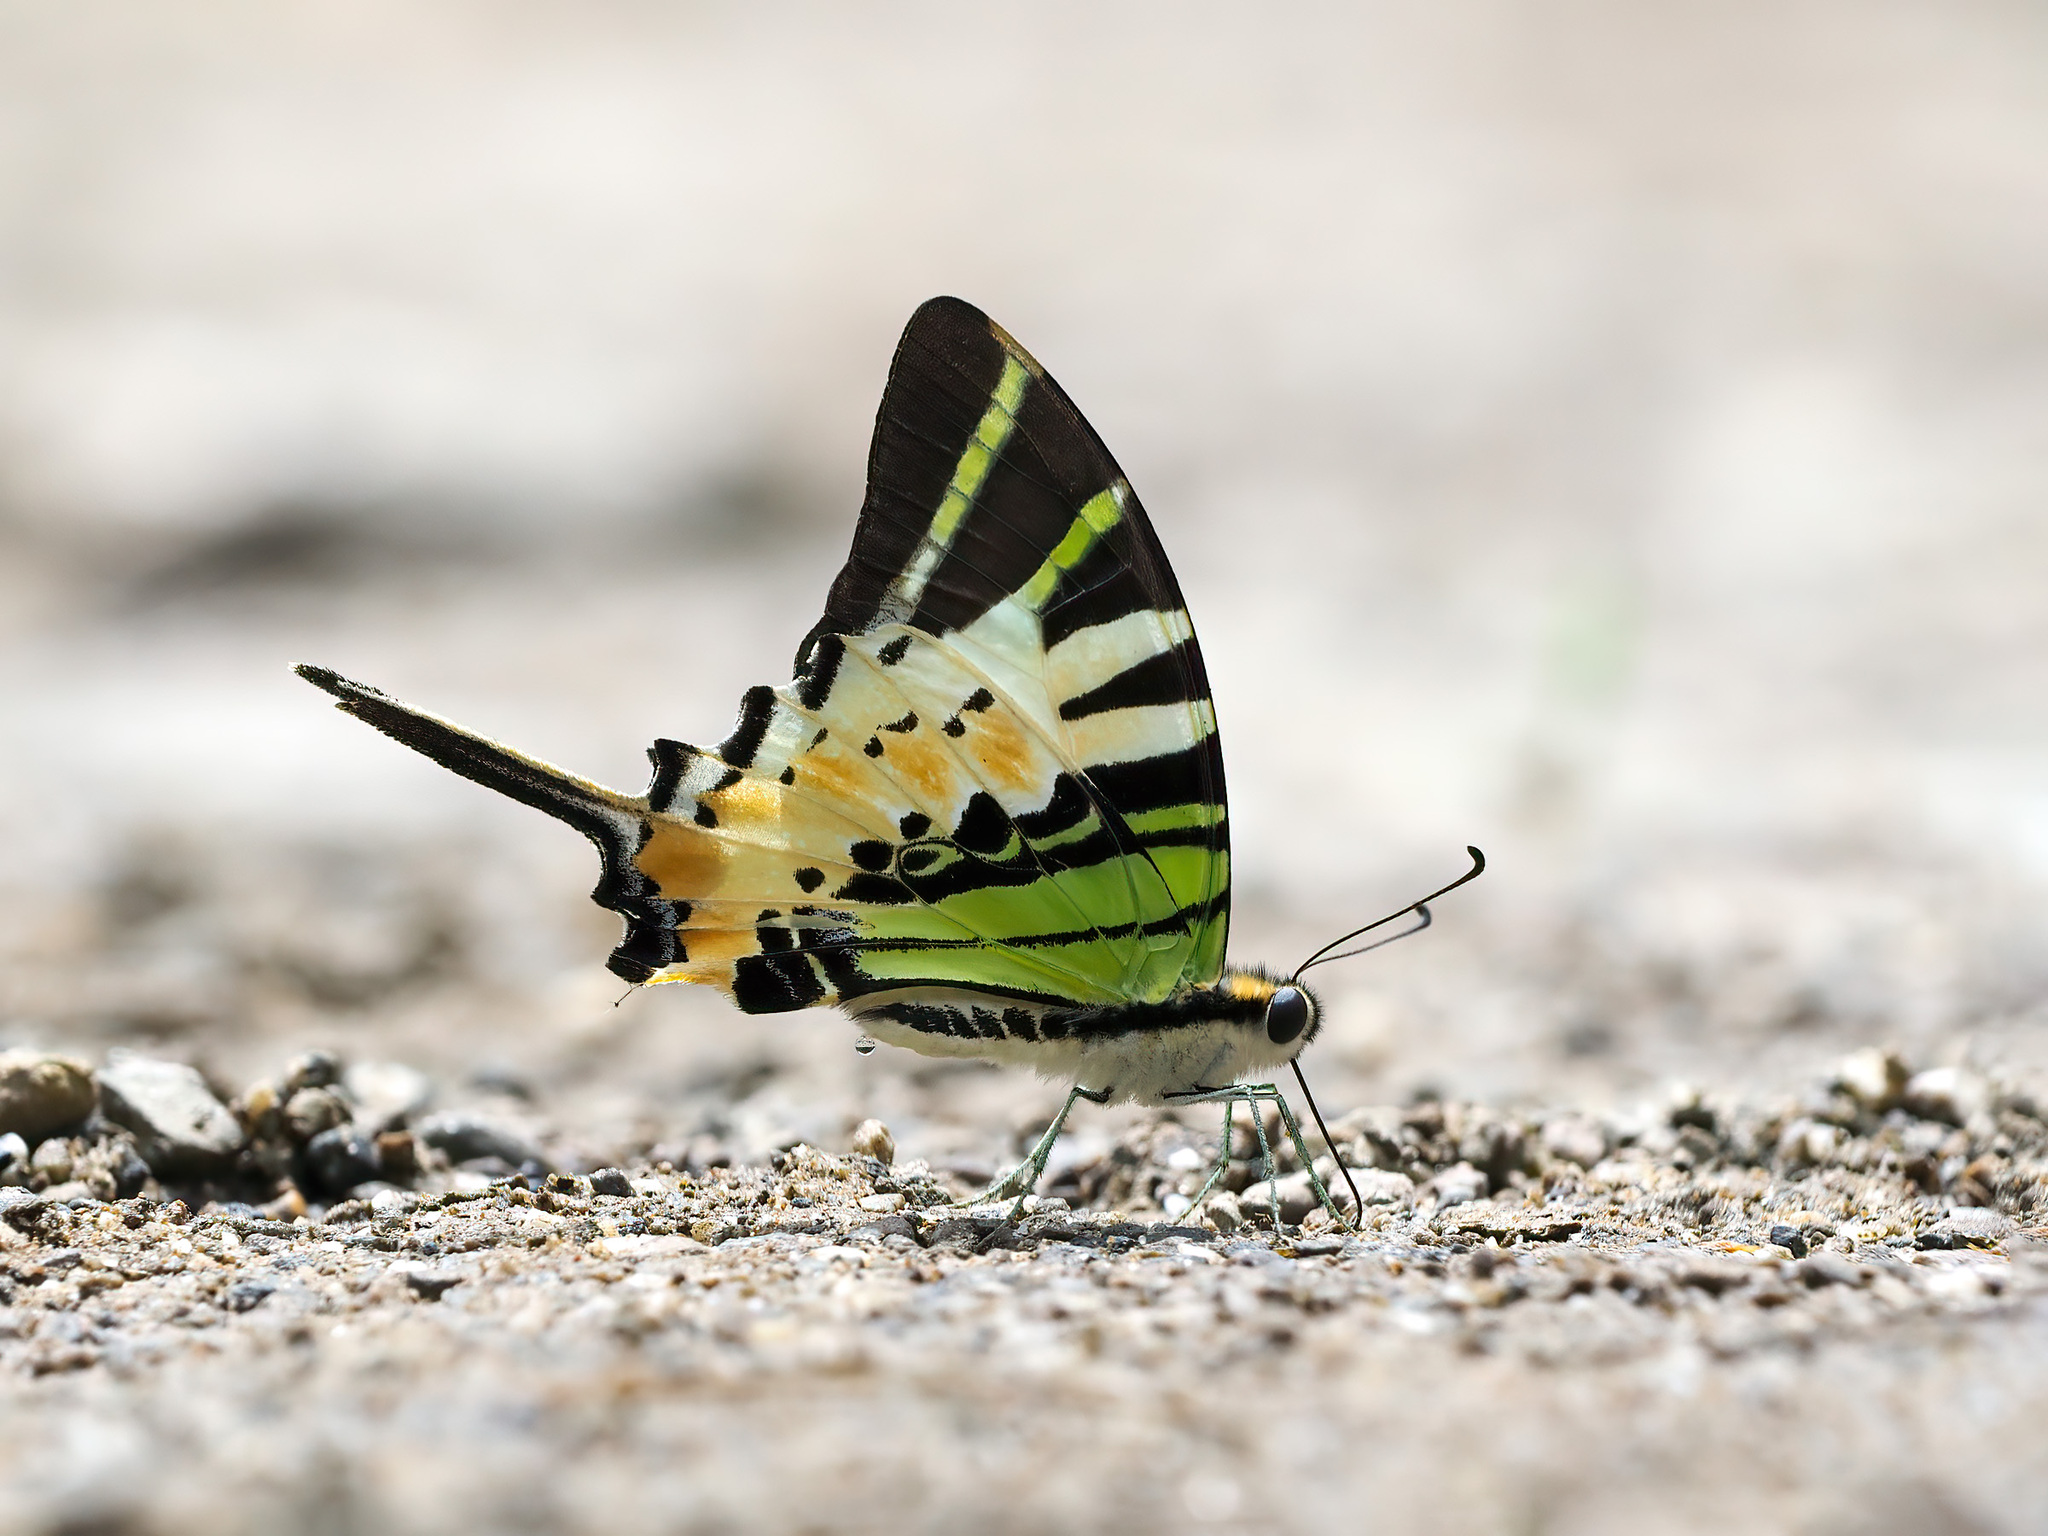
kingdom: Animalia
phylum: Arthropoda
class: Insecta
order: Lepidoptera
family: Papilionidae
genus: Graphium
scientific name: Graphium antiphates
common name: Fivebar swordtail
